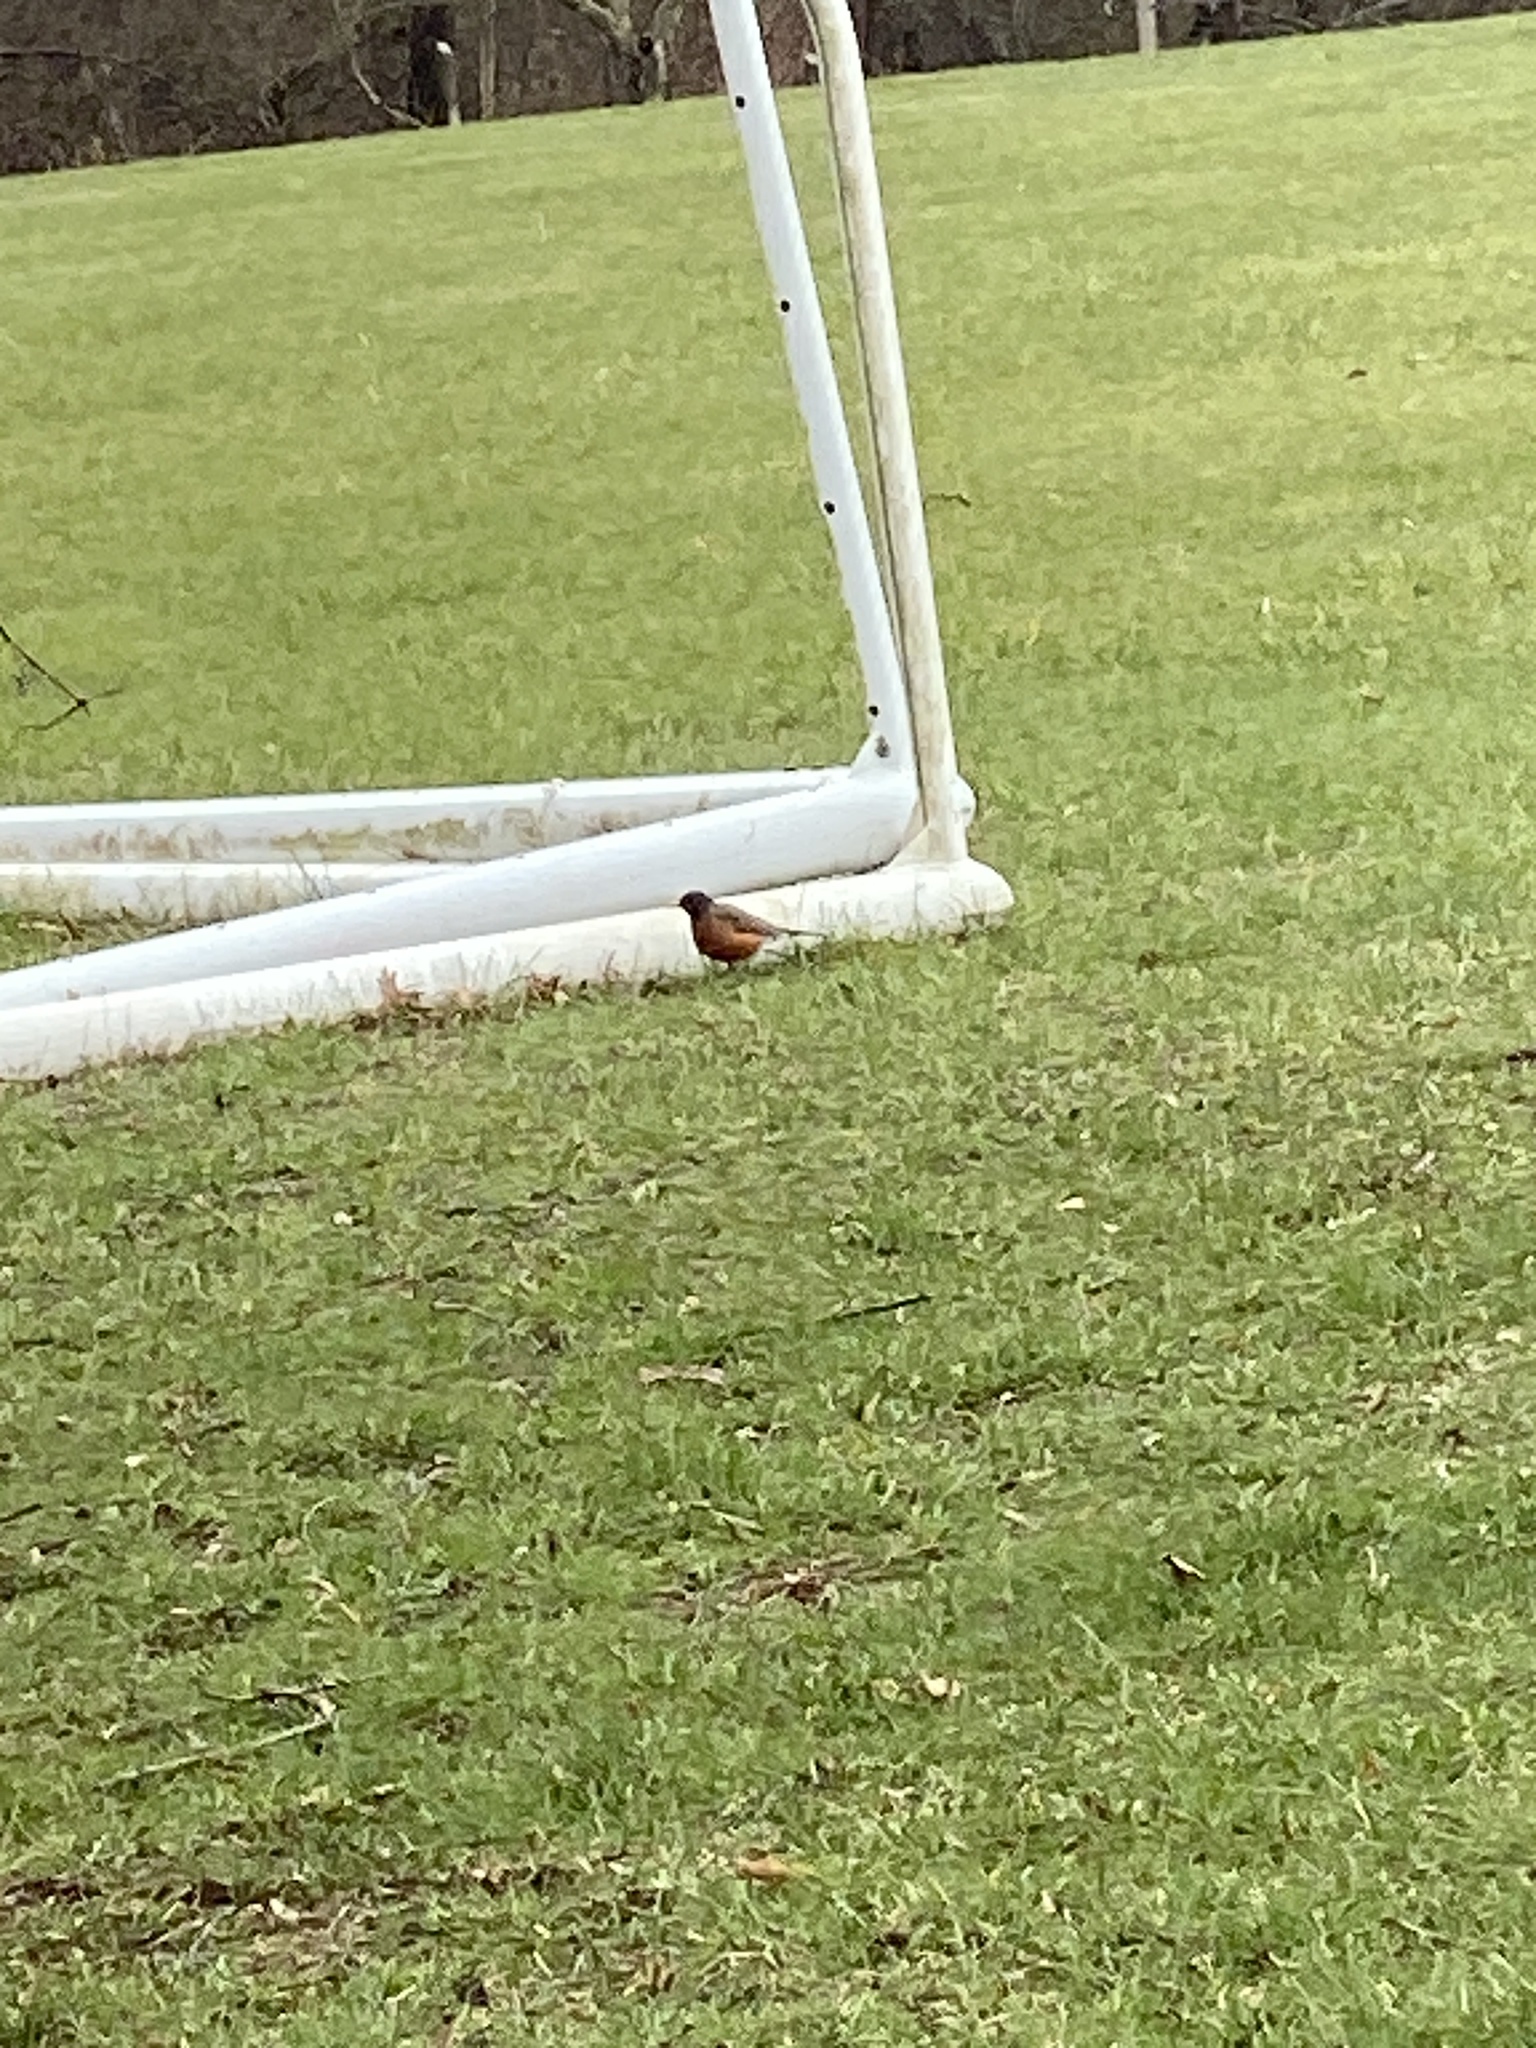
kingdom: Animalia
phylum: Chordata
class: Aves
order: Passeriformes
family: Turdidae
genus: Turdus
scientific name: Turdus migratorius
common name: American robin
